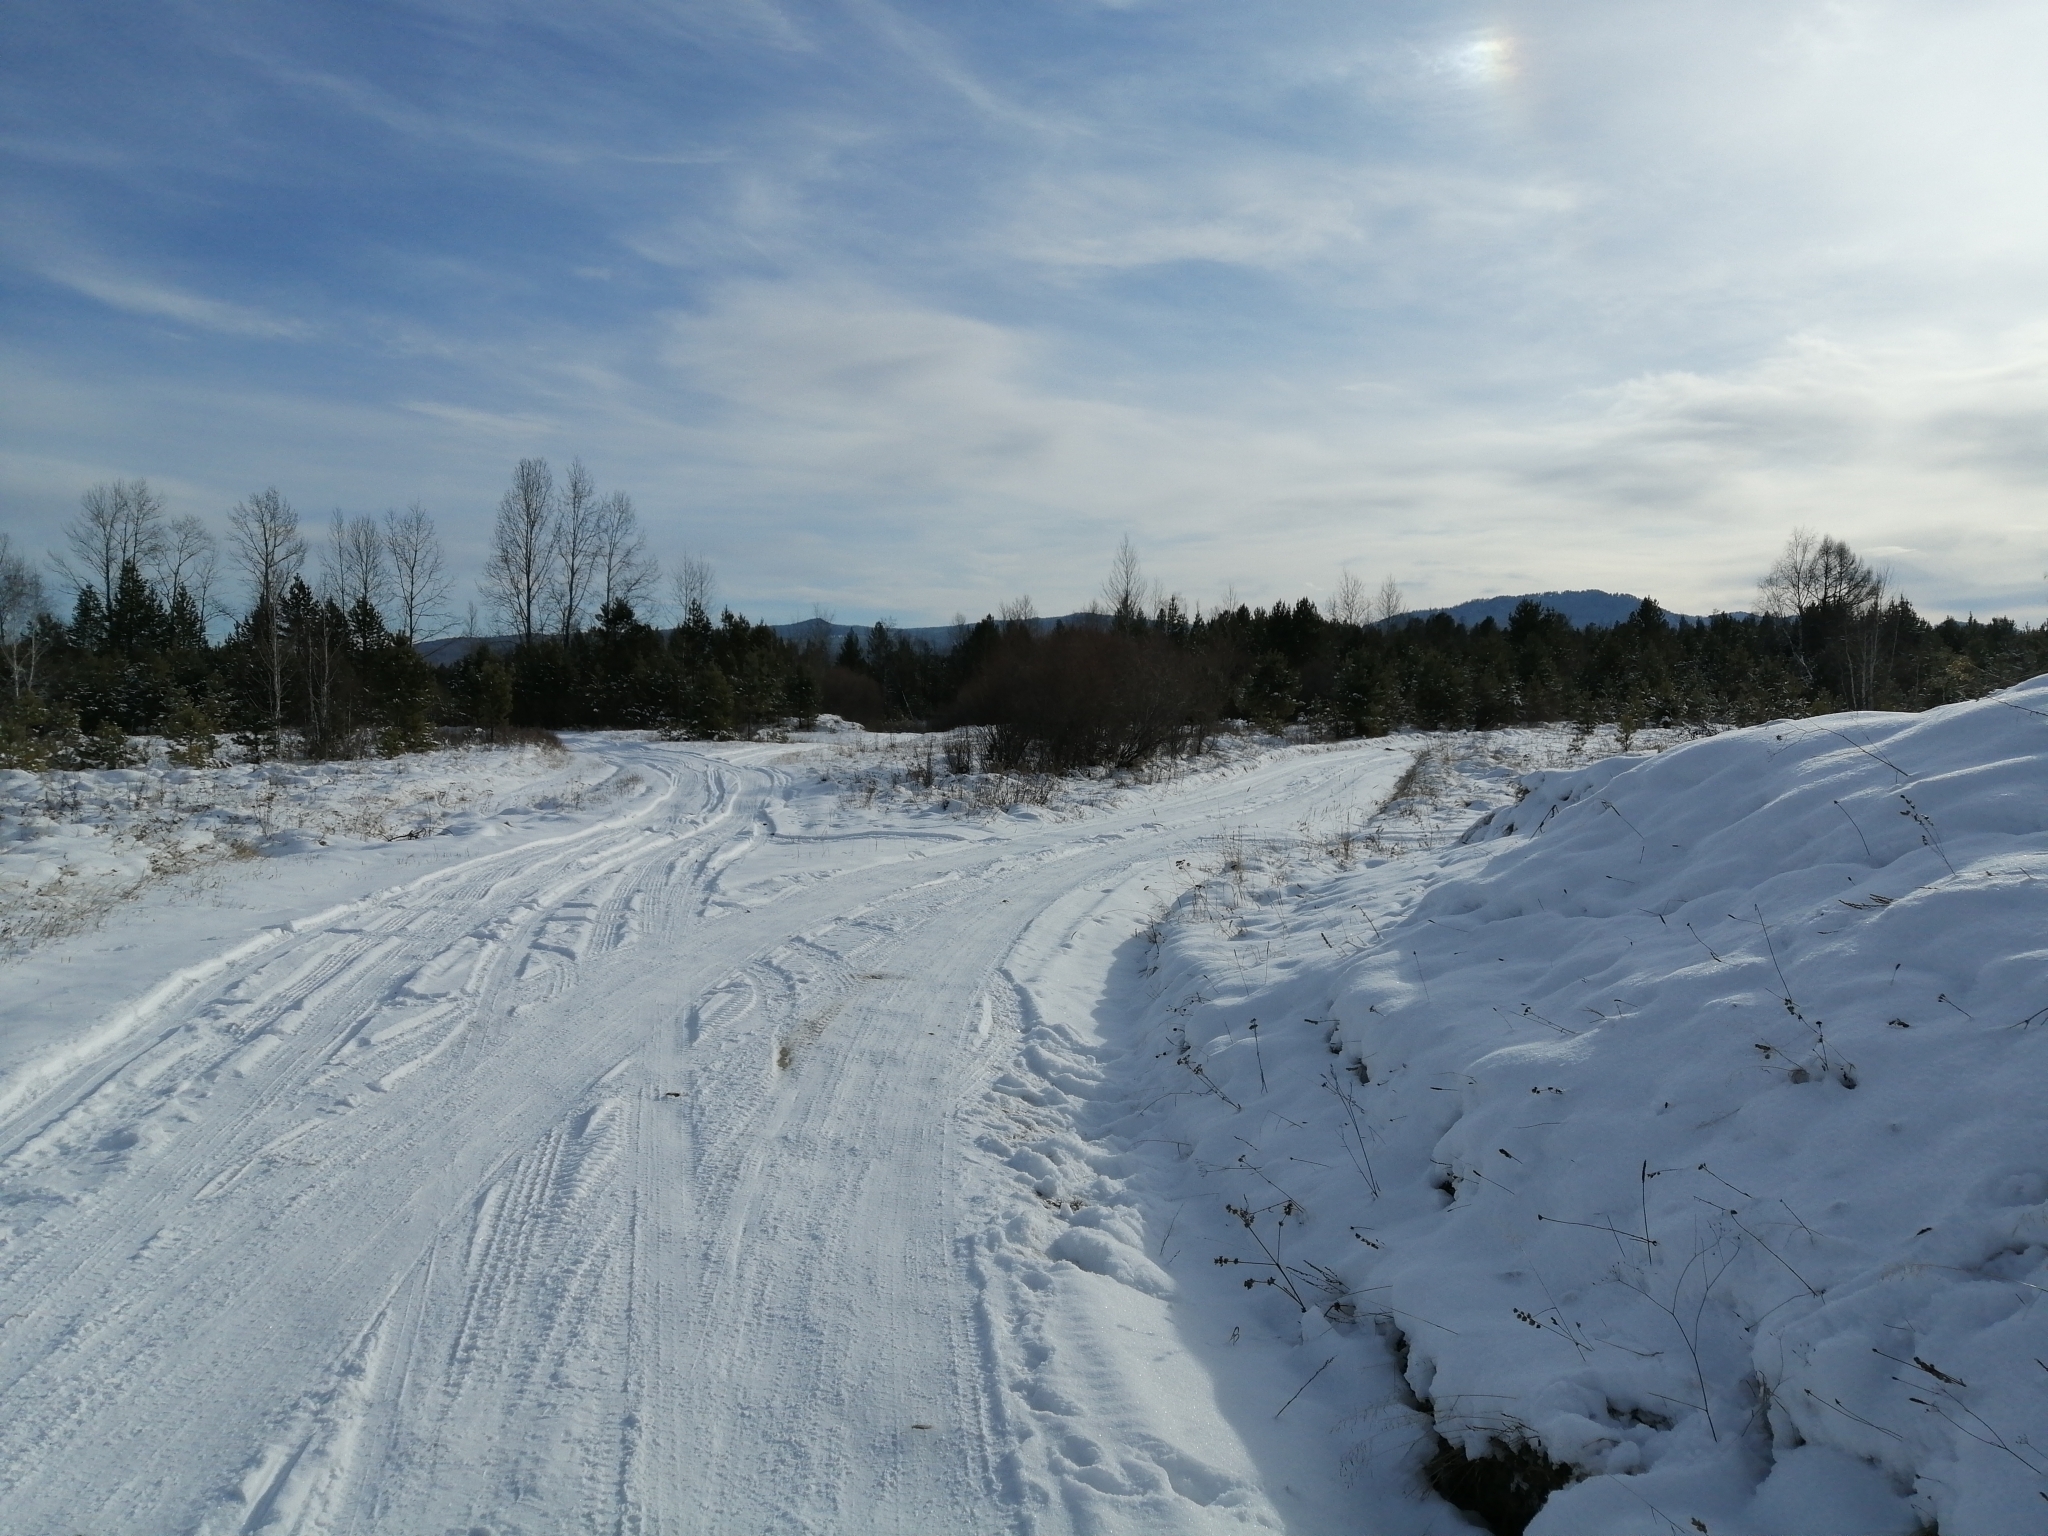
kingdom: Plantae
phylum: Tracheophyta
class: Pinopsida
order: Pinales
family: Pinaceae
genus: Pinus
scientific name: Pinus sylvestris
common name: Scots pine
